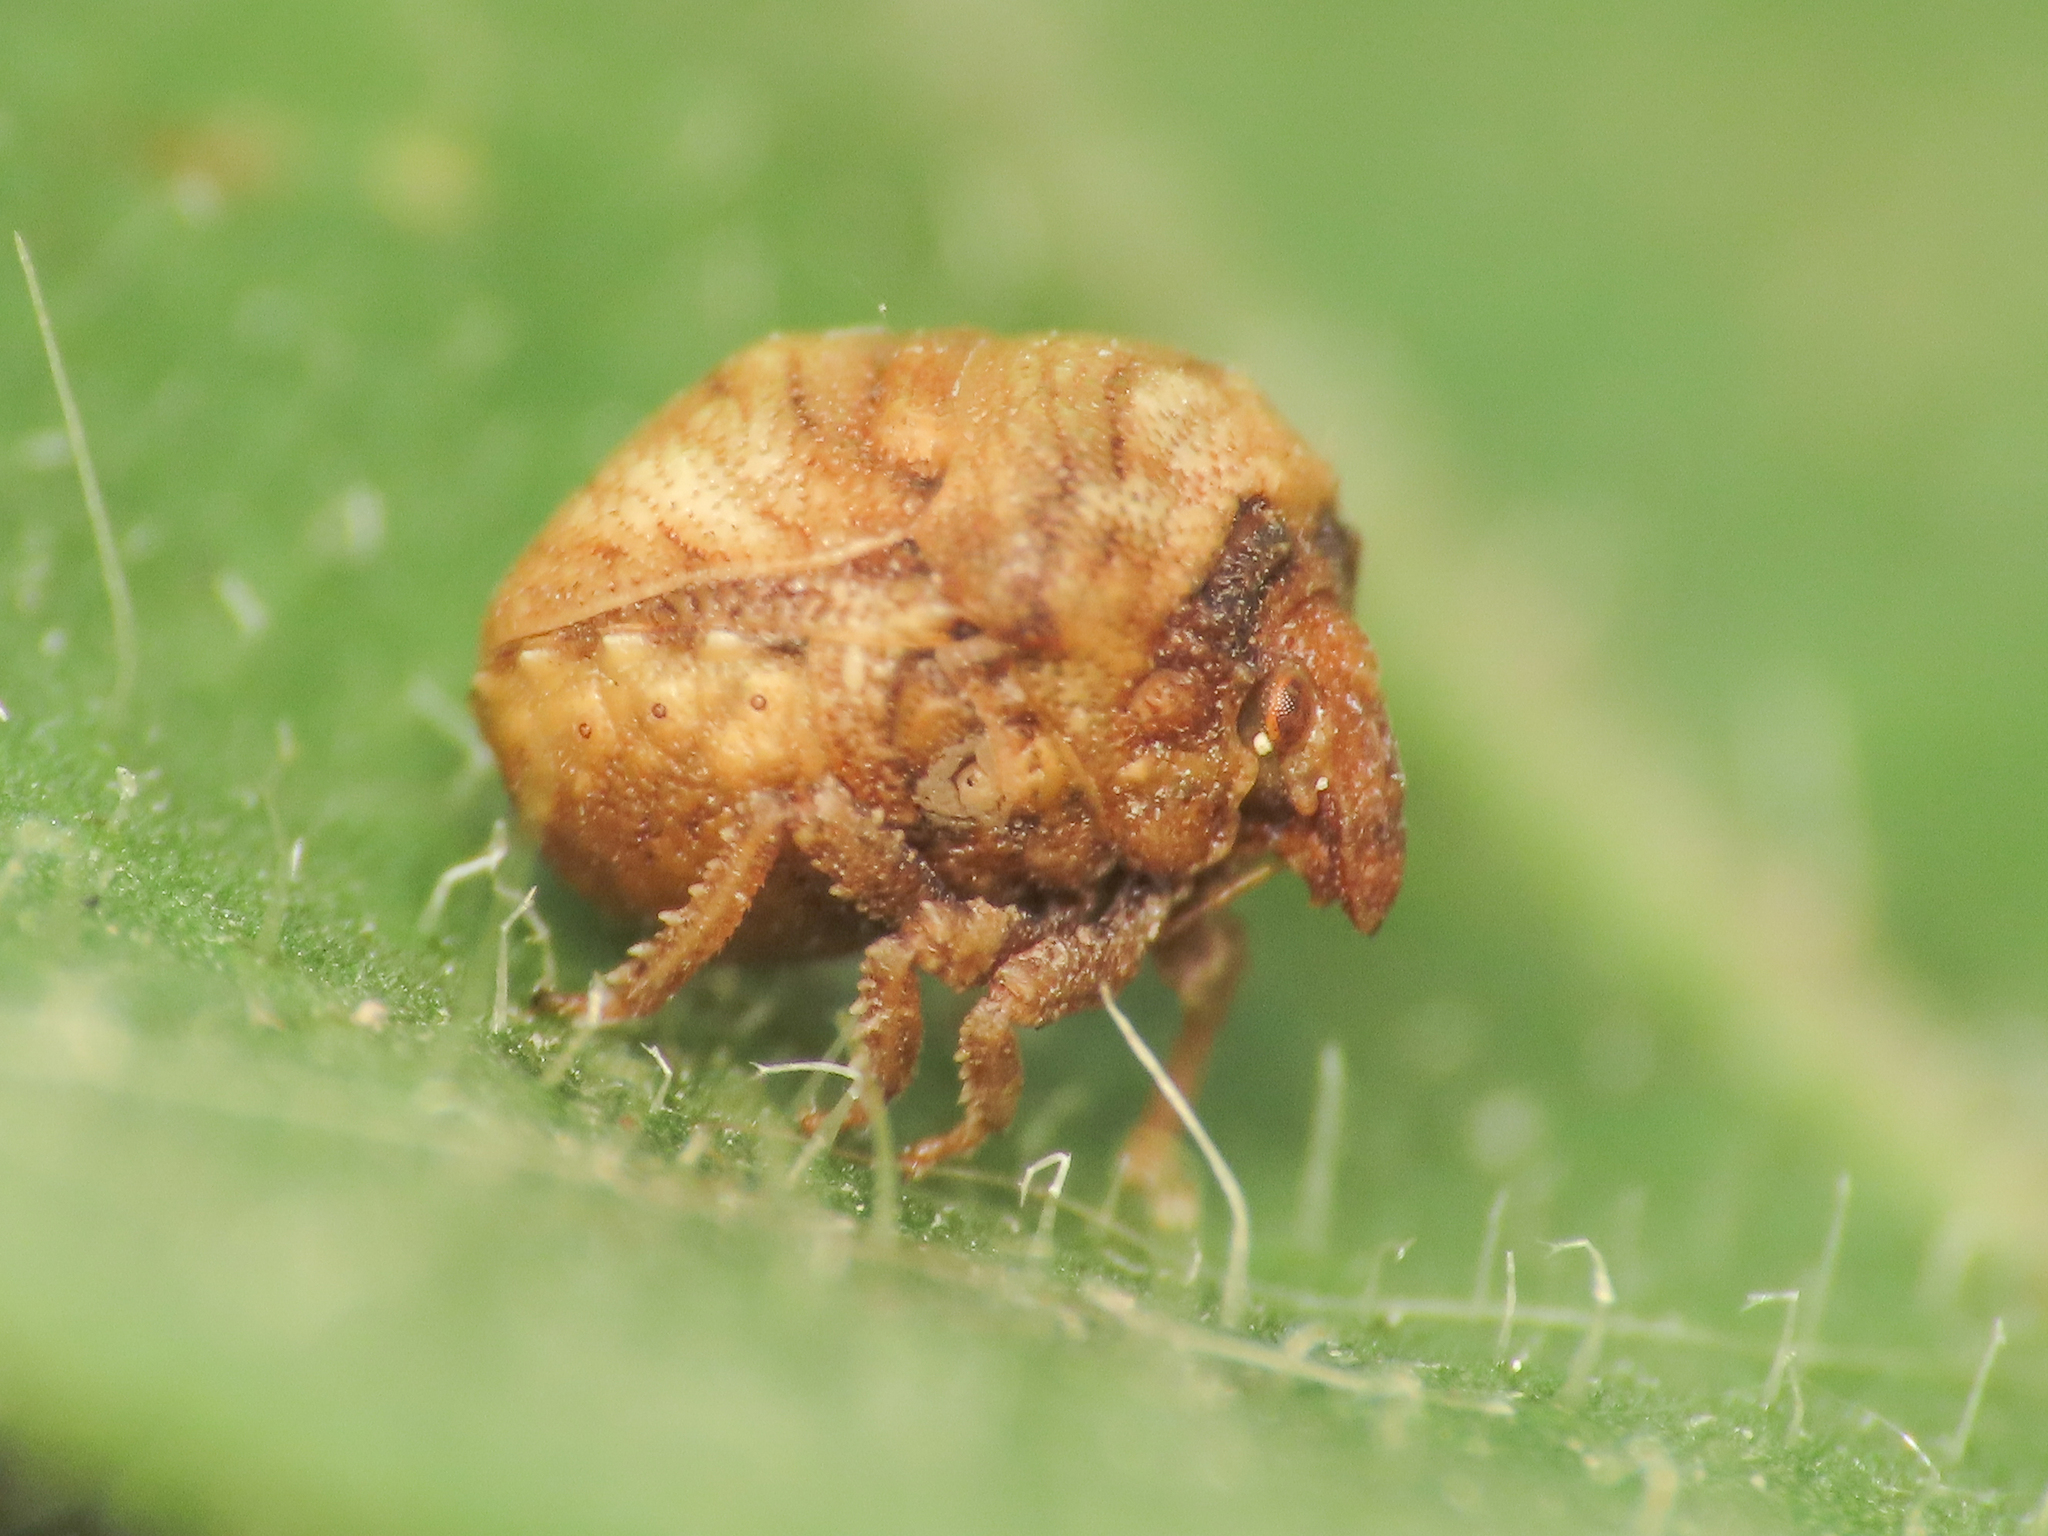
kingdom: Animalia
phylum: Arthropoda
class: Insecta
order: Hemiptera
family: Pentatomidae
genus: Vilpianus
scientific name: Vilpianus galii
